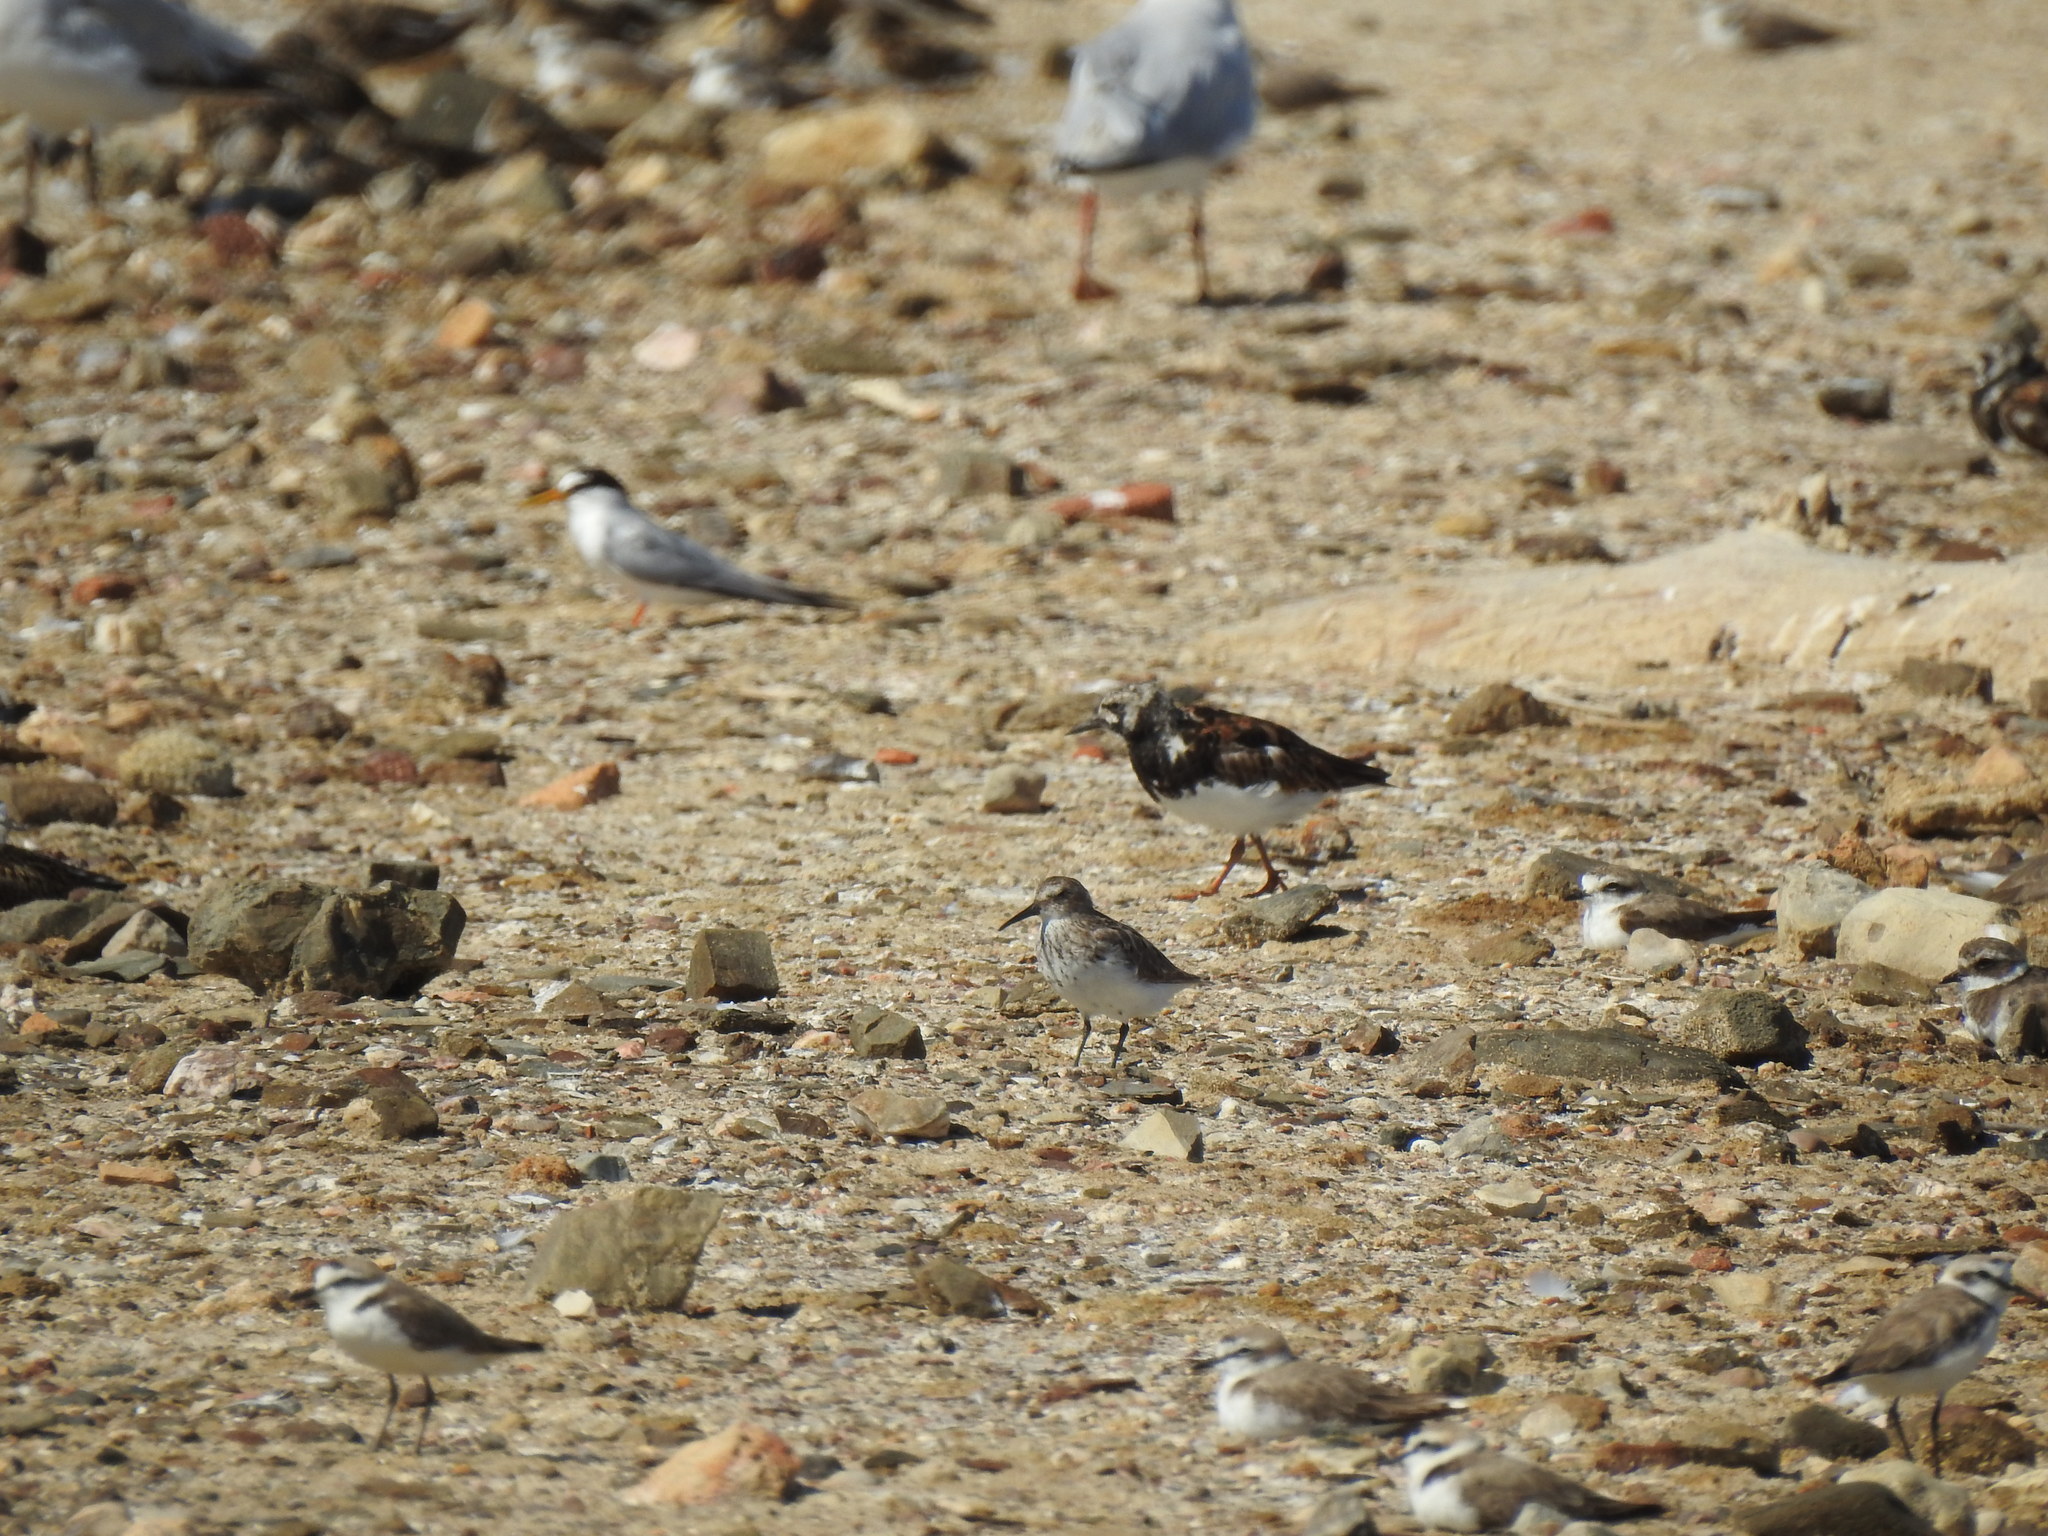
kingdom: Animalia
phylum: Chordata
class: Aves
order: Charadriiformes
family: Scolopacidae
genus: Arenaria
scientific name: Arenaria interpres
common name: Ruddy turnstone
